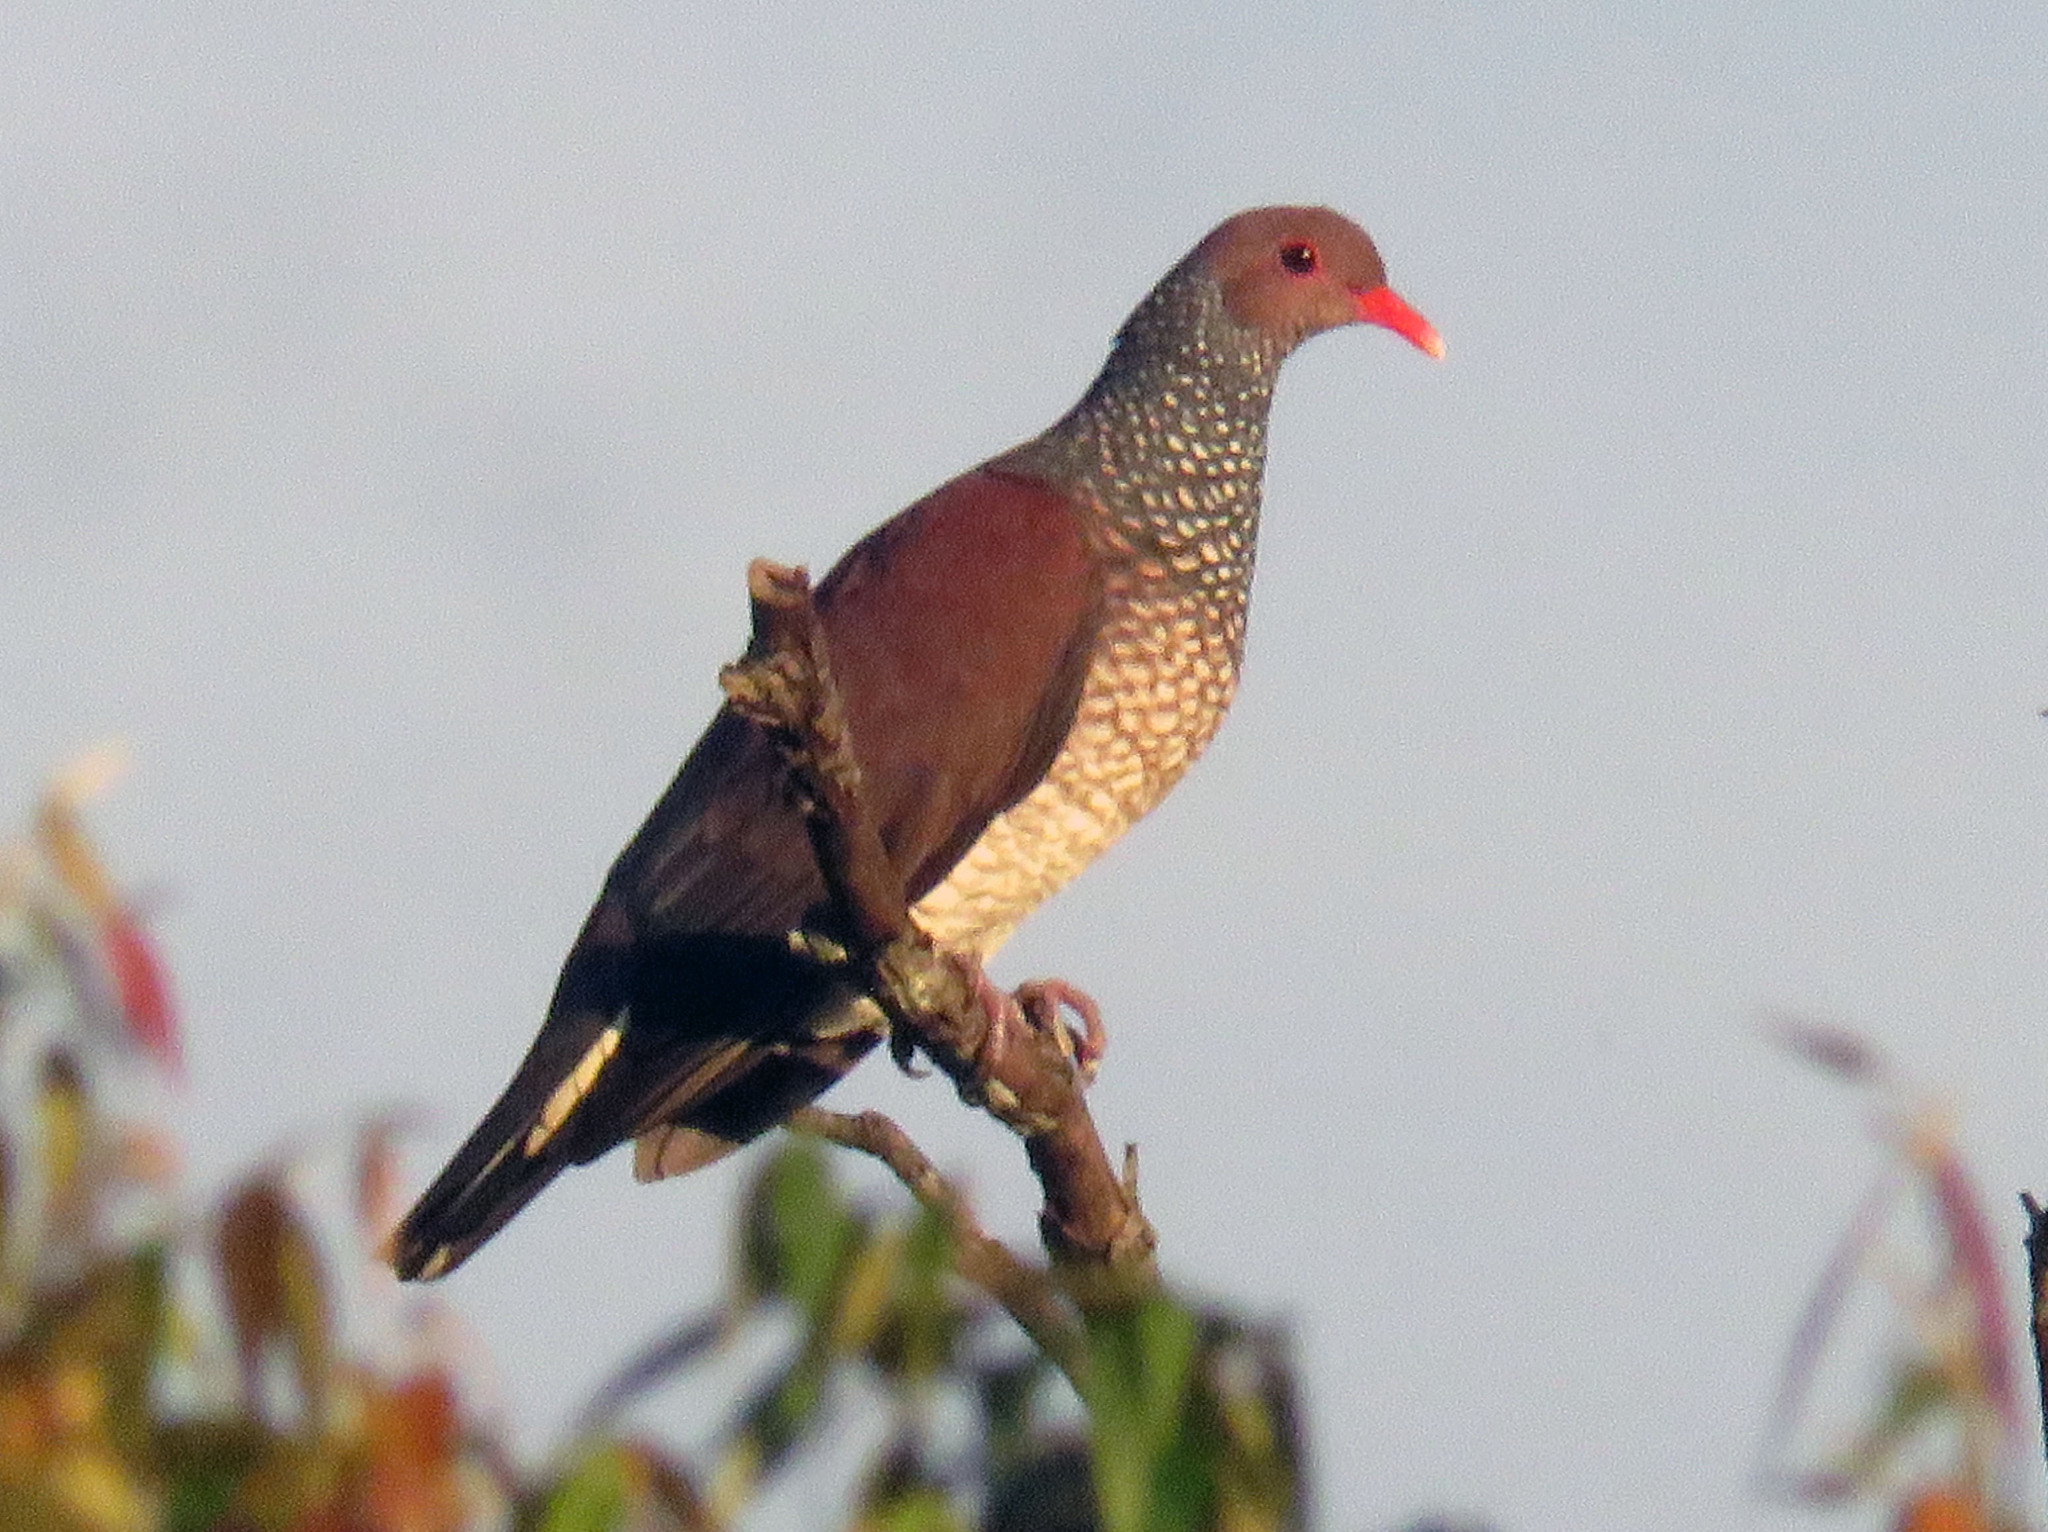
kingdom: Animalia
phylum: Chordata
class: Aves
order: Columbiformes
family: Columbidae
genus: Patagioenas
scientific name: Patagioenas speciosa
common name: Scaled pigeon
